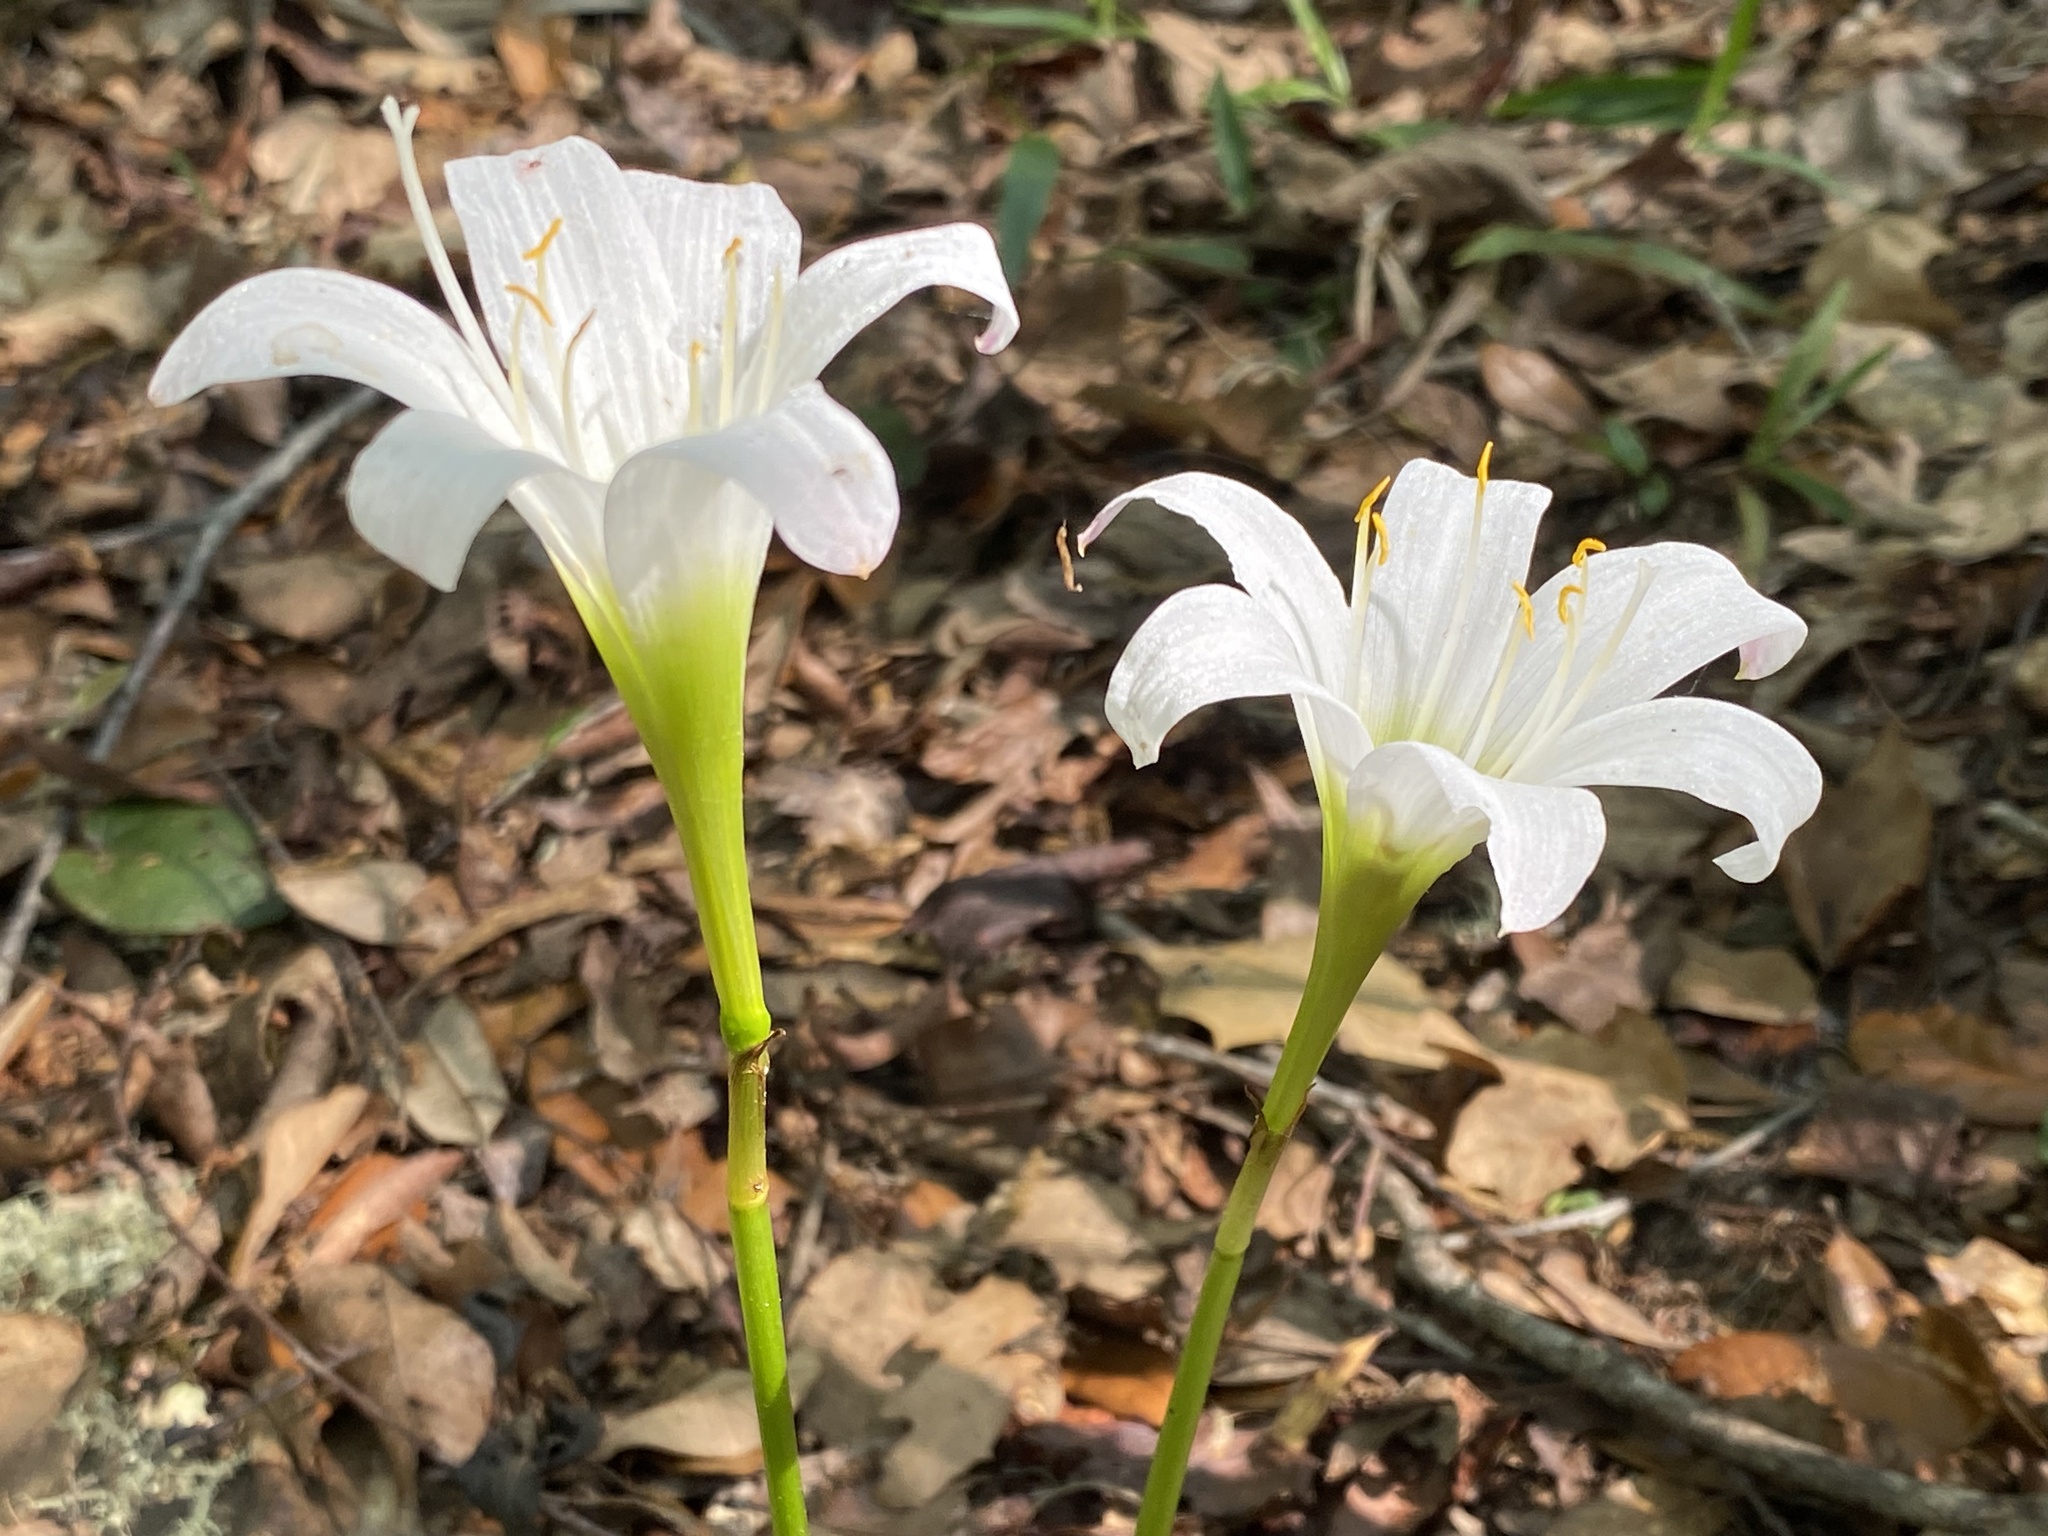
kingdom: Plantae
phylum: Tracheophyta
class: Liliopsida
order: Asparagales
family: Amaryllidaceae
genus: Zephyranthes
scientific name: Zephyranthes atamasco
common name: Atamasco lily
